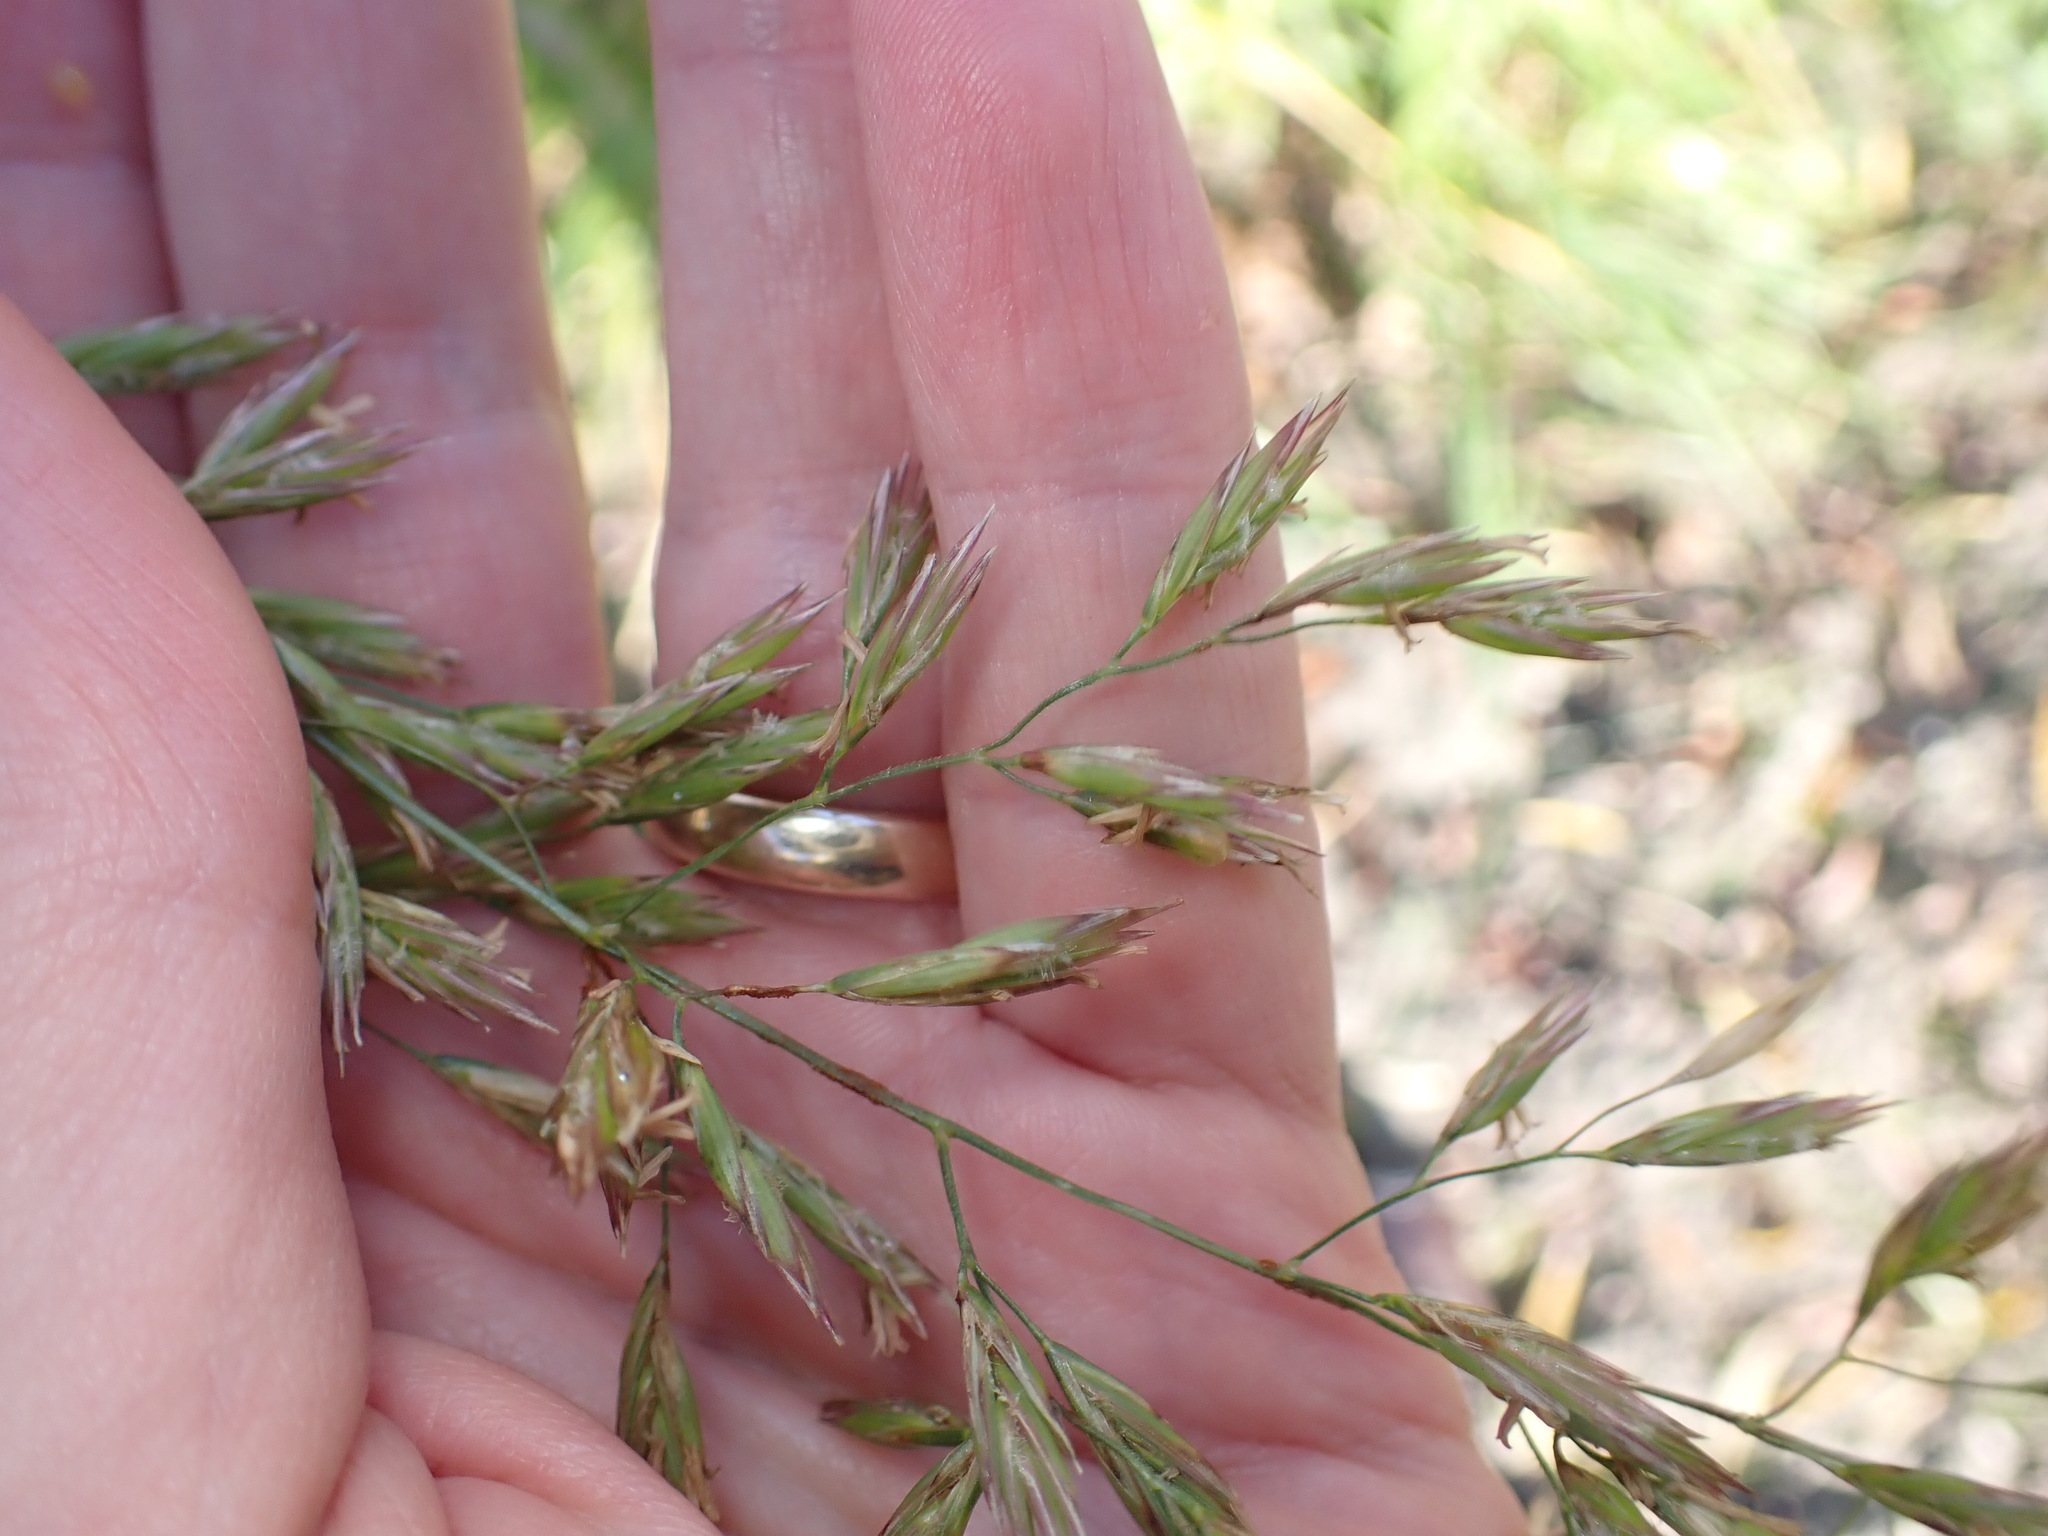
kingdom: Plantae
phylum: Tracheophyta
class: Liliopsida
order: Poales
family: Poaceae
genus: Lolium
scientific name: Lolium arundinaceum
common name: Reed fescue
